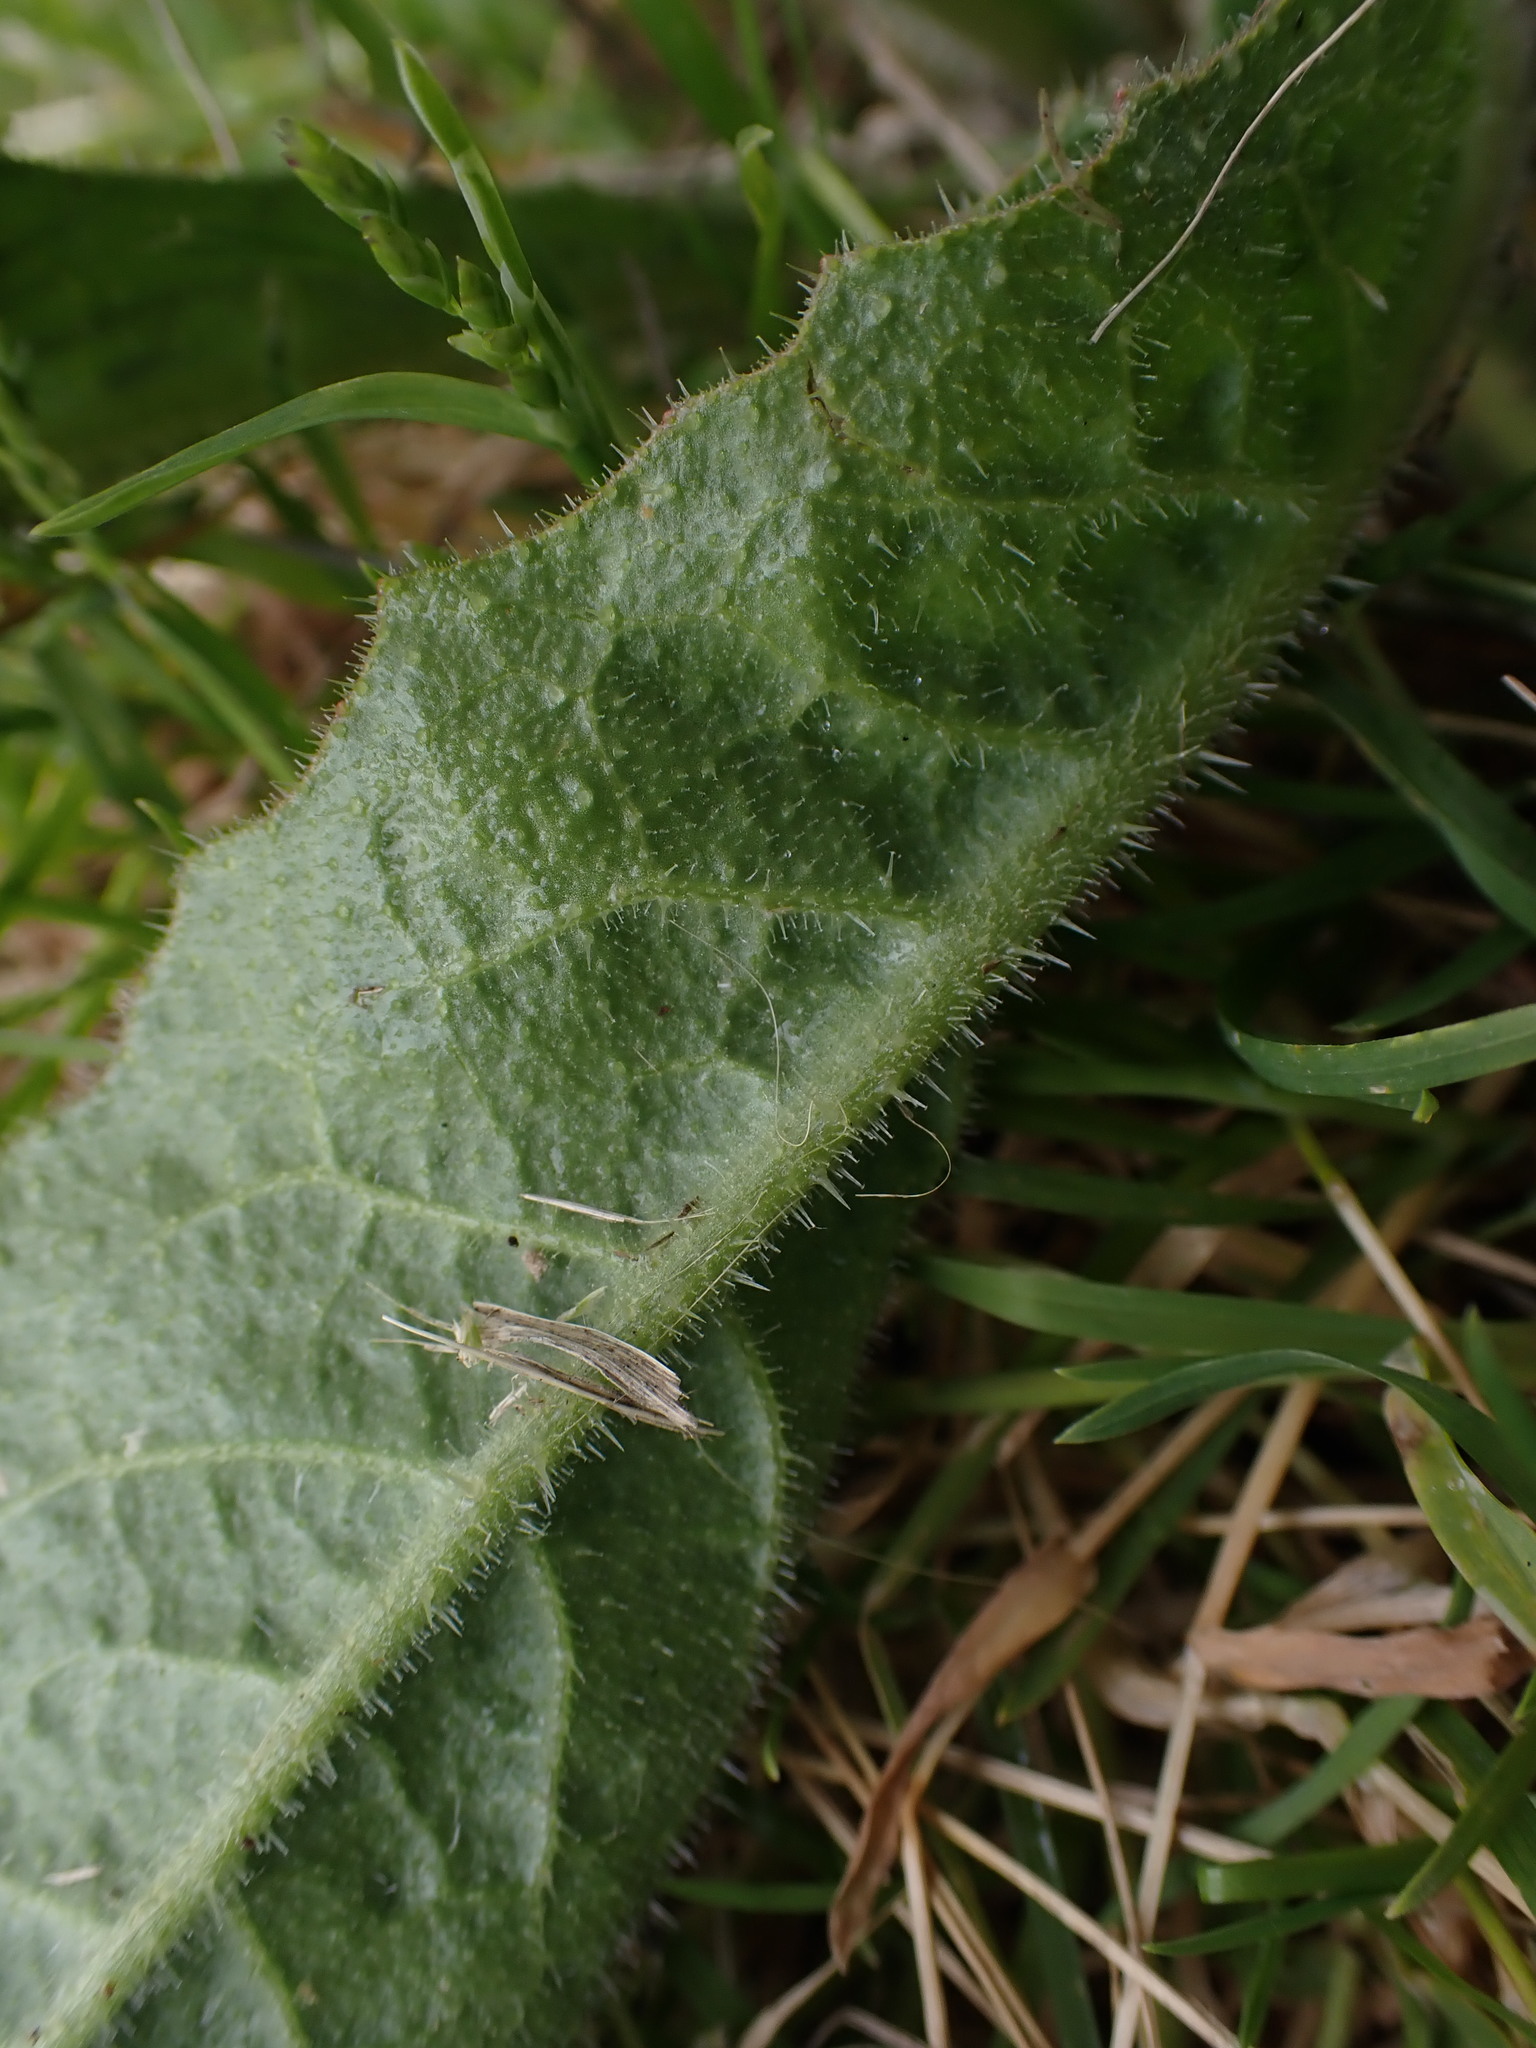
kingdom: Plantae
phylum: Tracheophyta
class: Magnoliopsida
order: Asterales
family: Asteraceae
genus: Helminthotheca
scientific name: Helminthotheca echioides
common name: Ox-tongue
